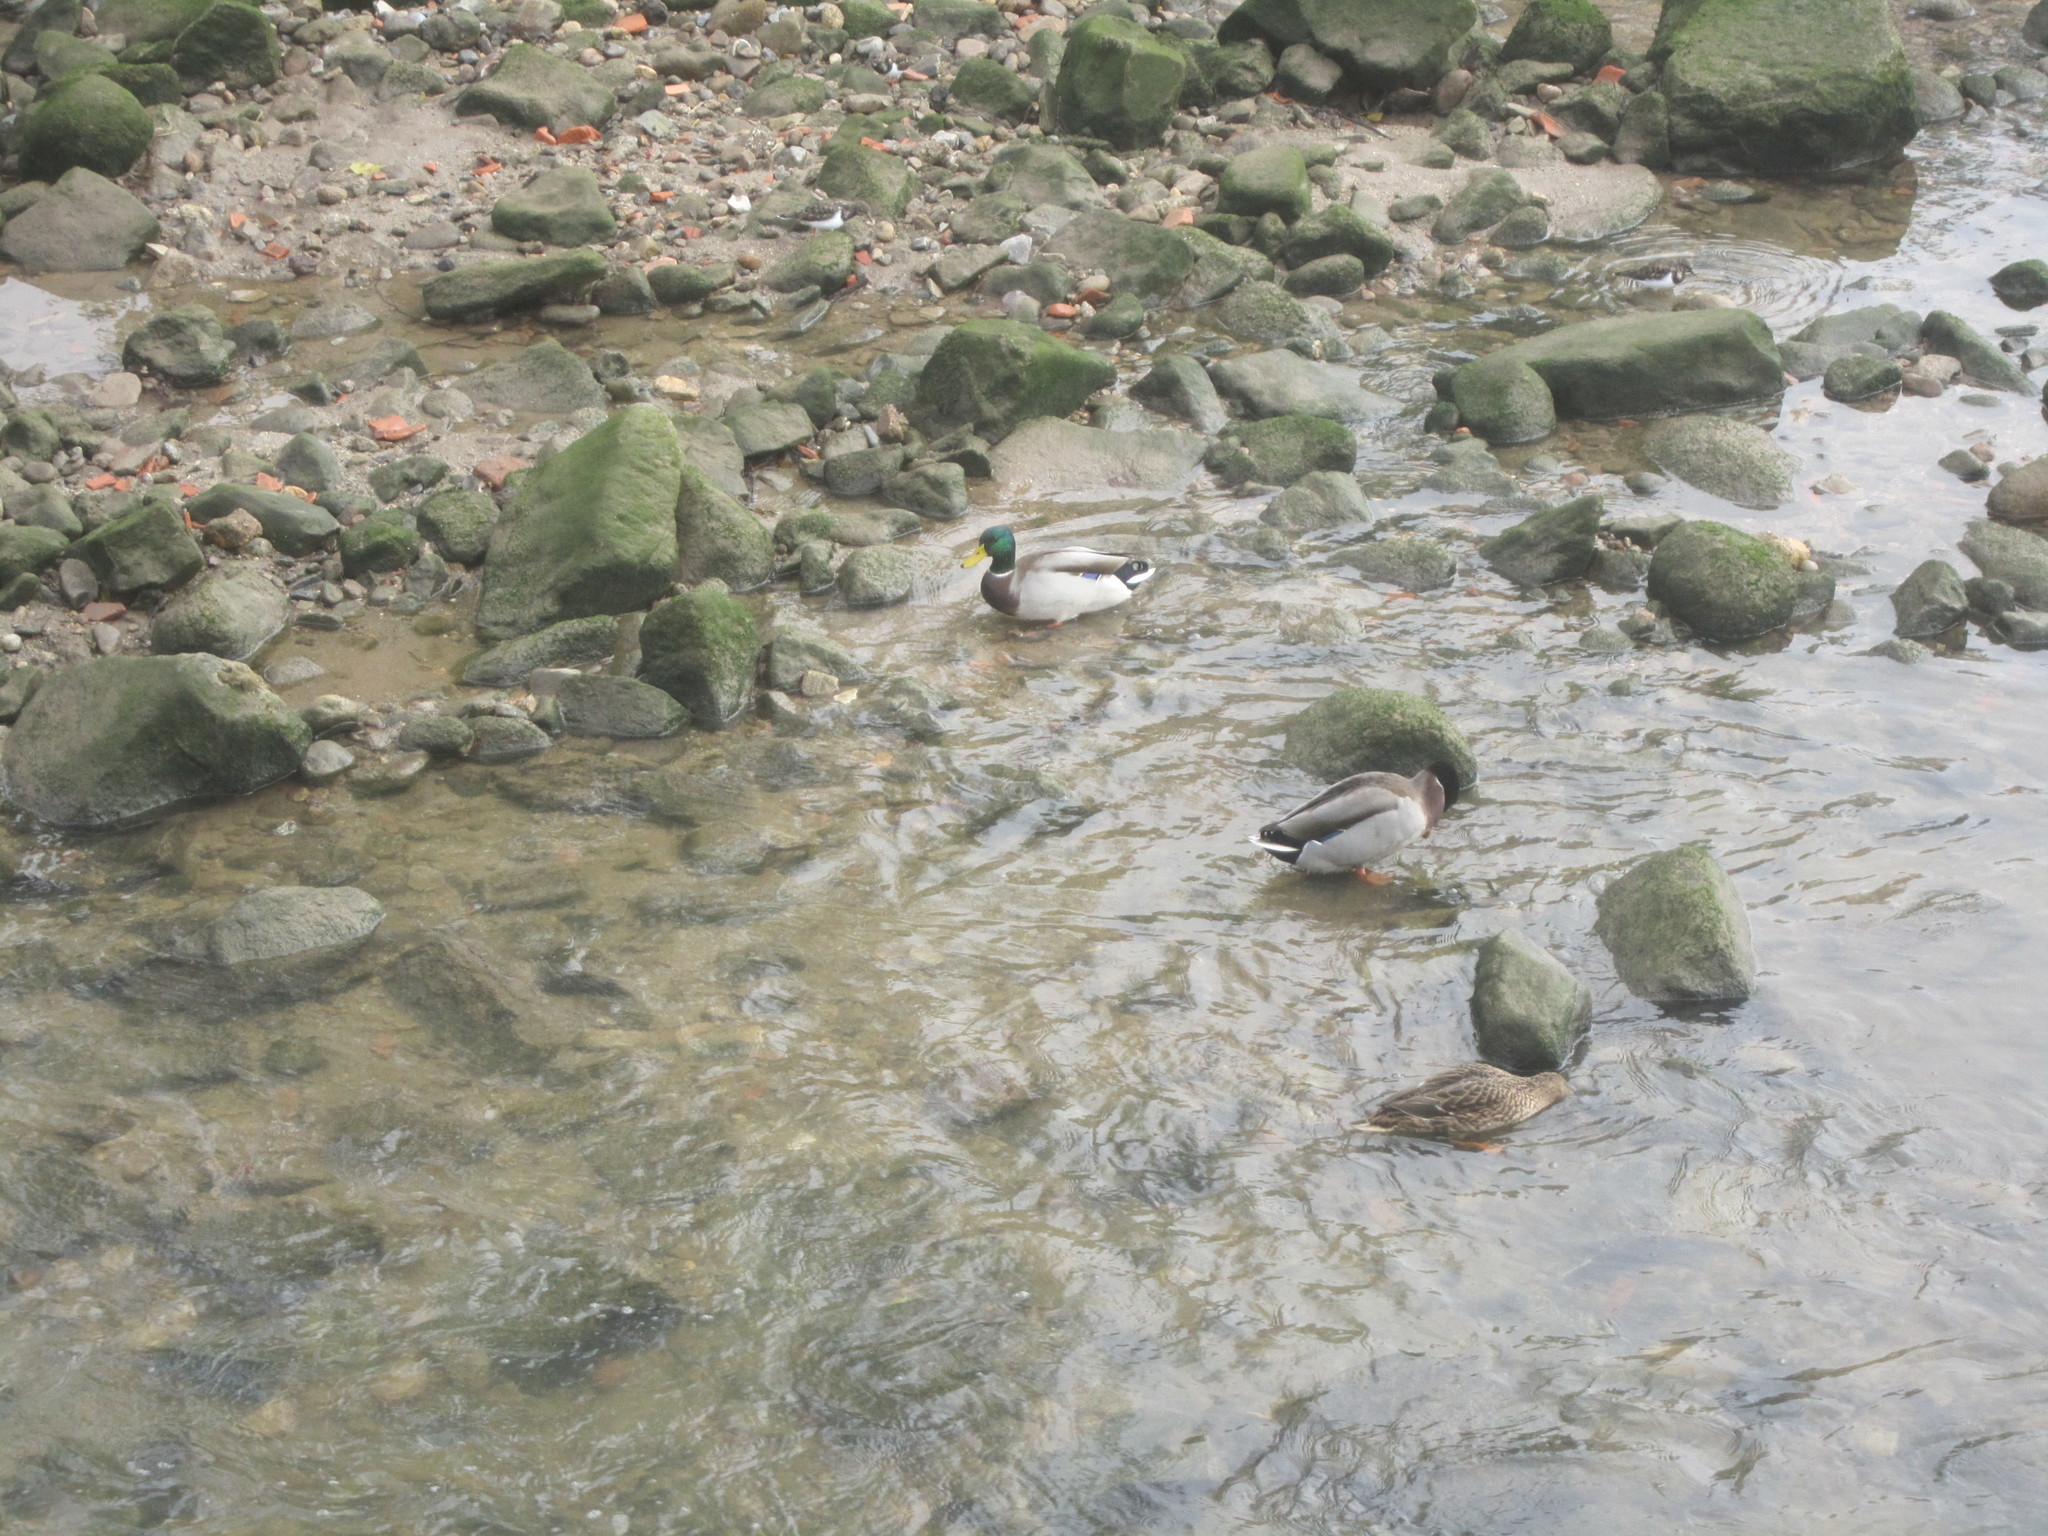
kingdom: Animalia
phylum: Chordata
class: Aves
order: Anseriformes
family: Anatidae
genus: Anas
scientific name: Anas platyrhynchos
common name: Mallard
